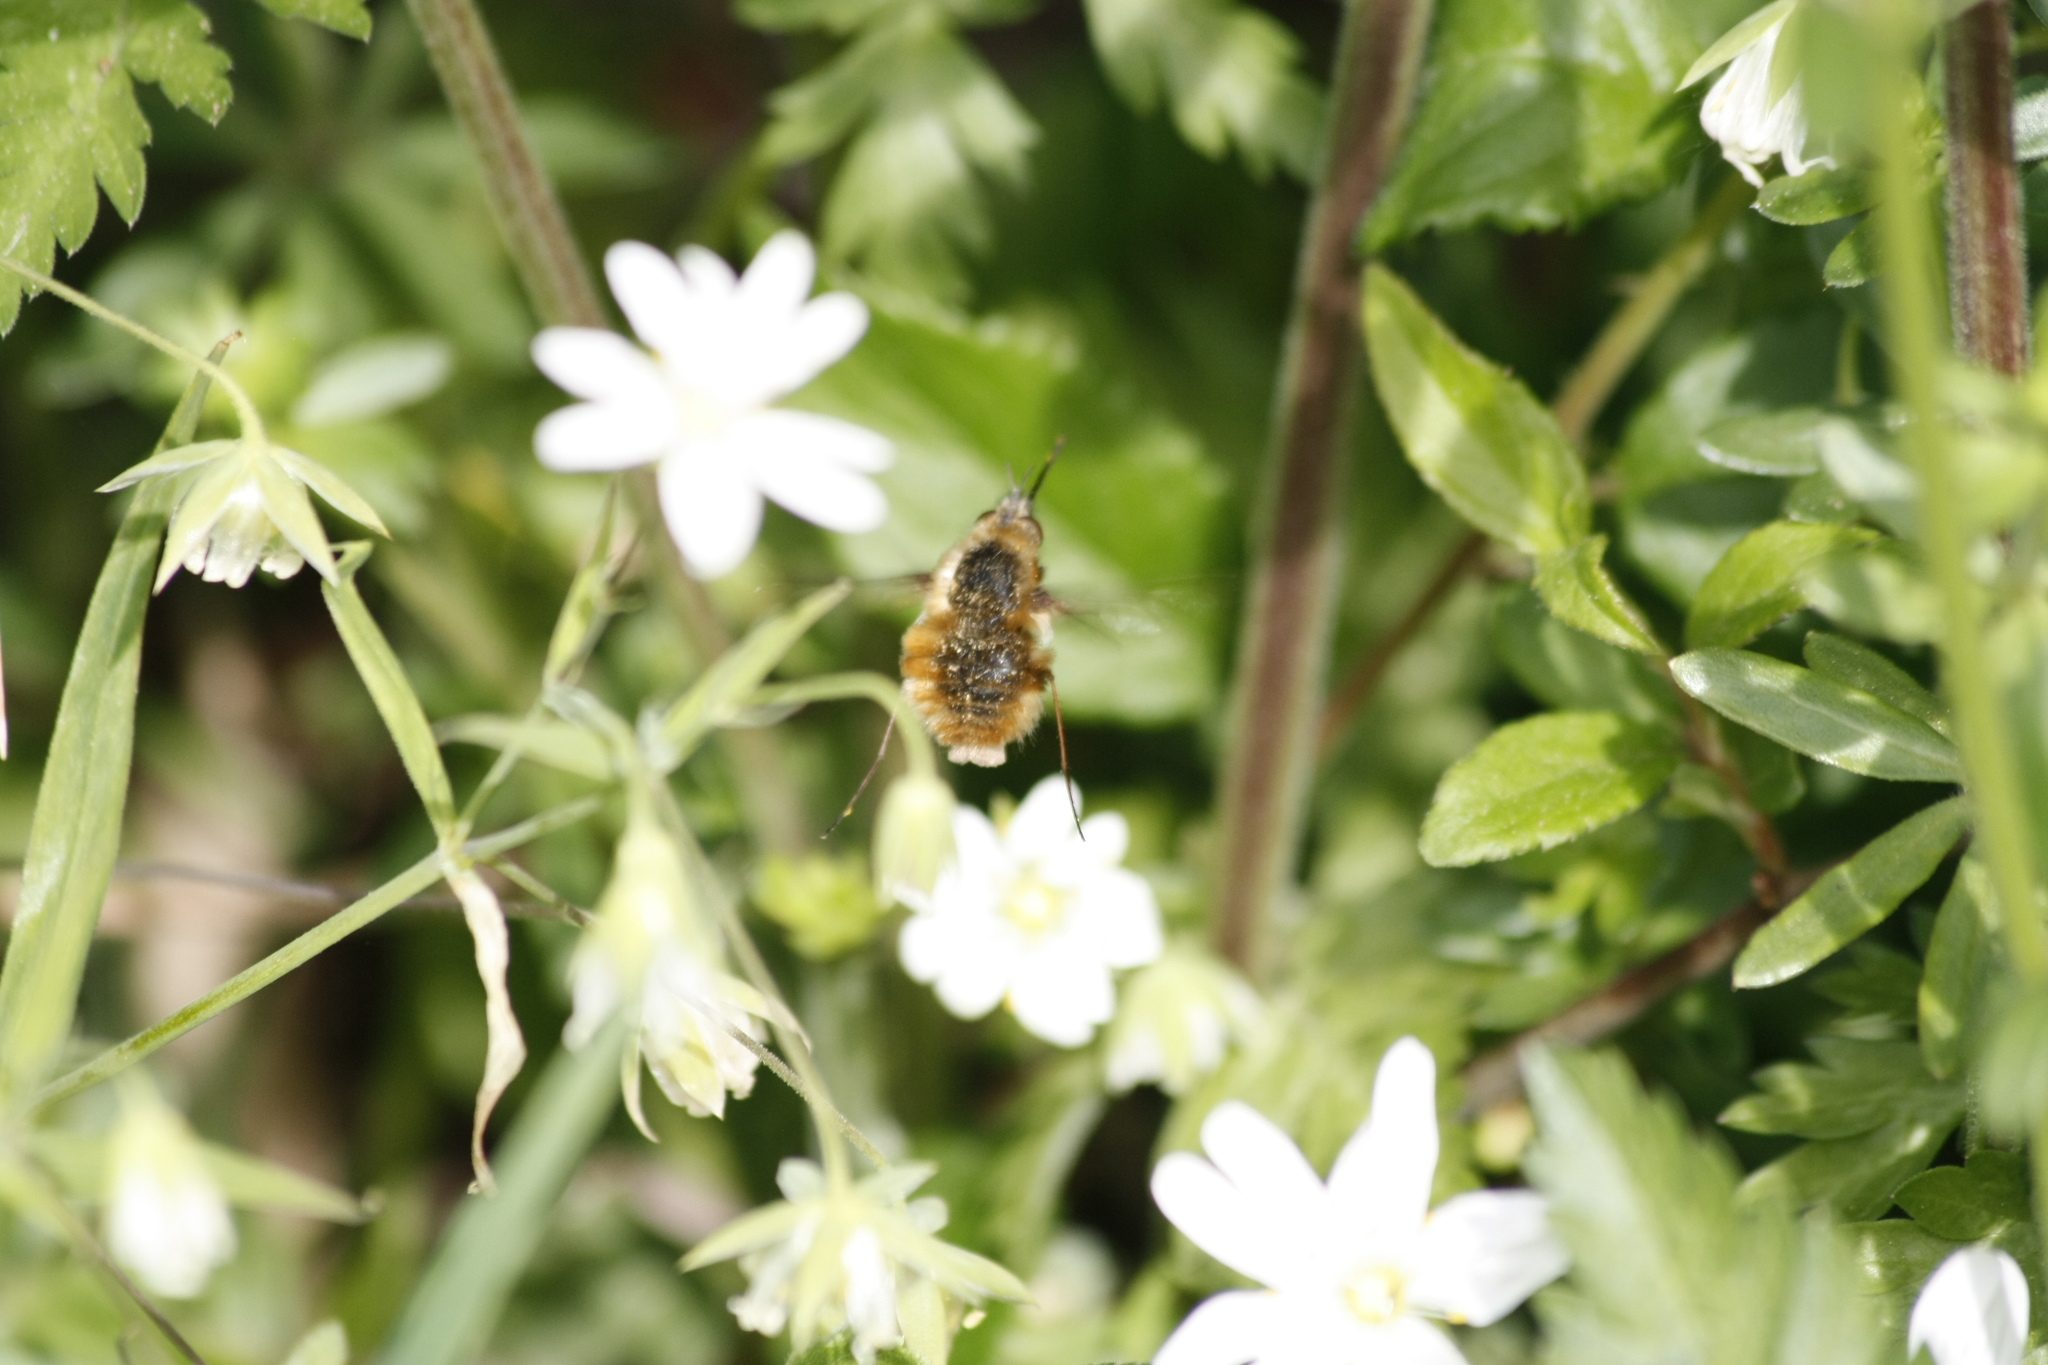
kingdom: Animalia
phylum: Arthropoda
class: Insecta
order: Diptera
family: Bombyliidae
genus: Bombylius
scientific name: Bombylius major
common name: Bee fly
